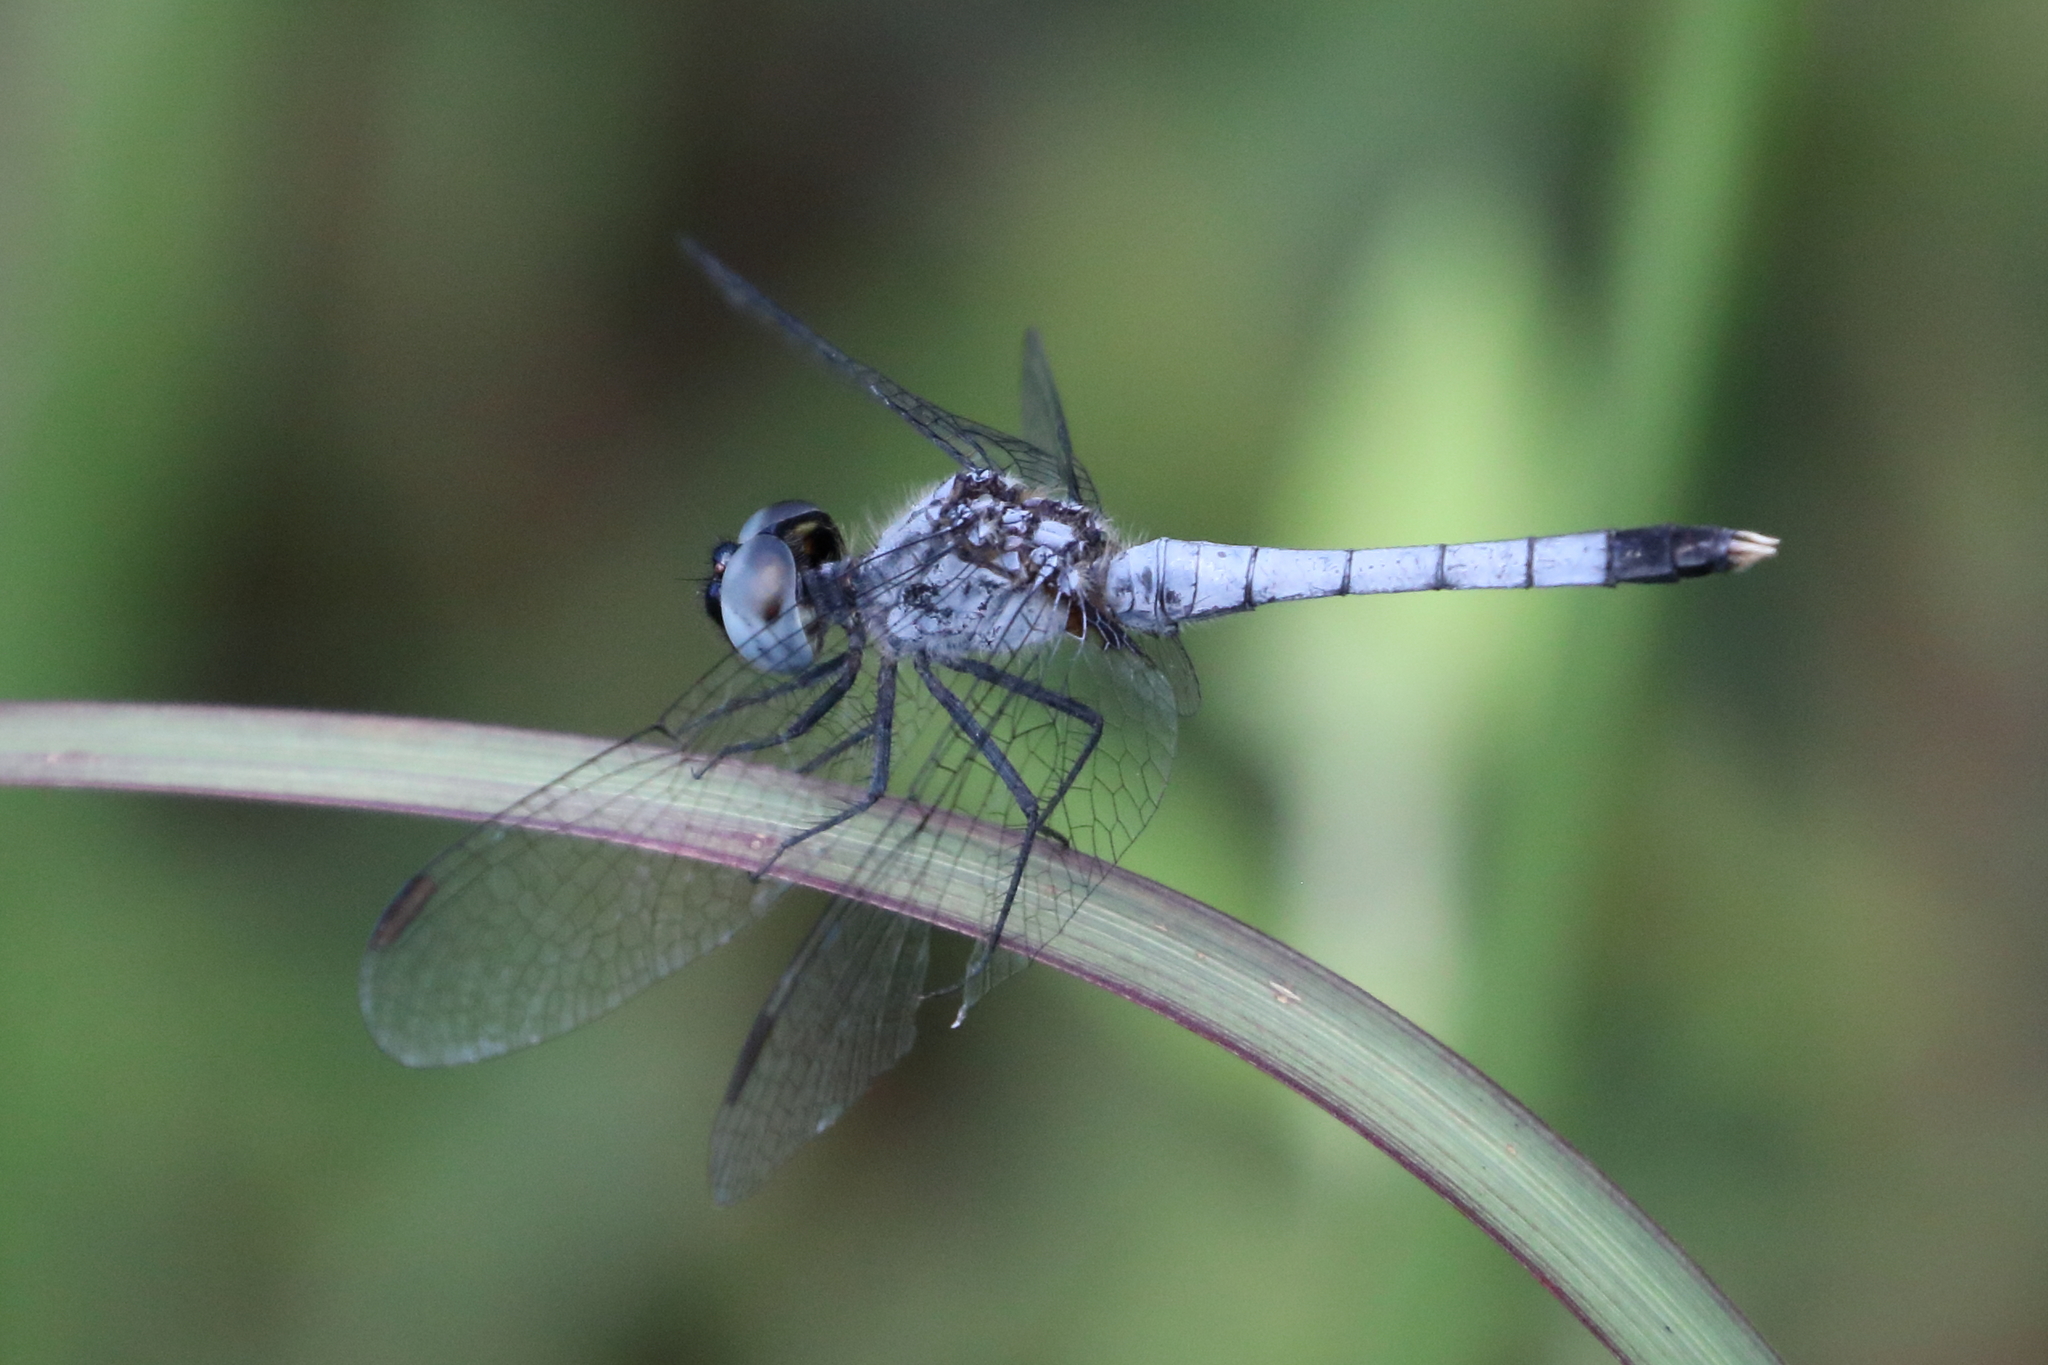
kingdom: Animalia
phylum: Arthropoda
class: Insecta
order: Odonata
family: Libellulidae
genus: Erythrodiplax
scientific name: Erythrodiplax minuscula
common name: Little blue dragonlet
